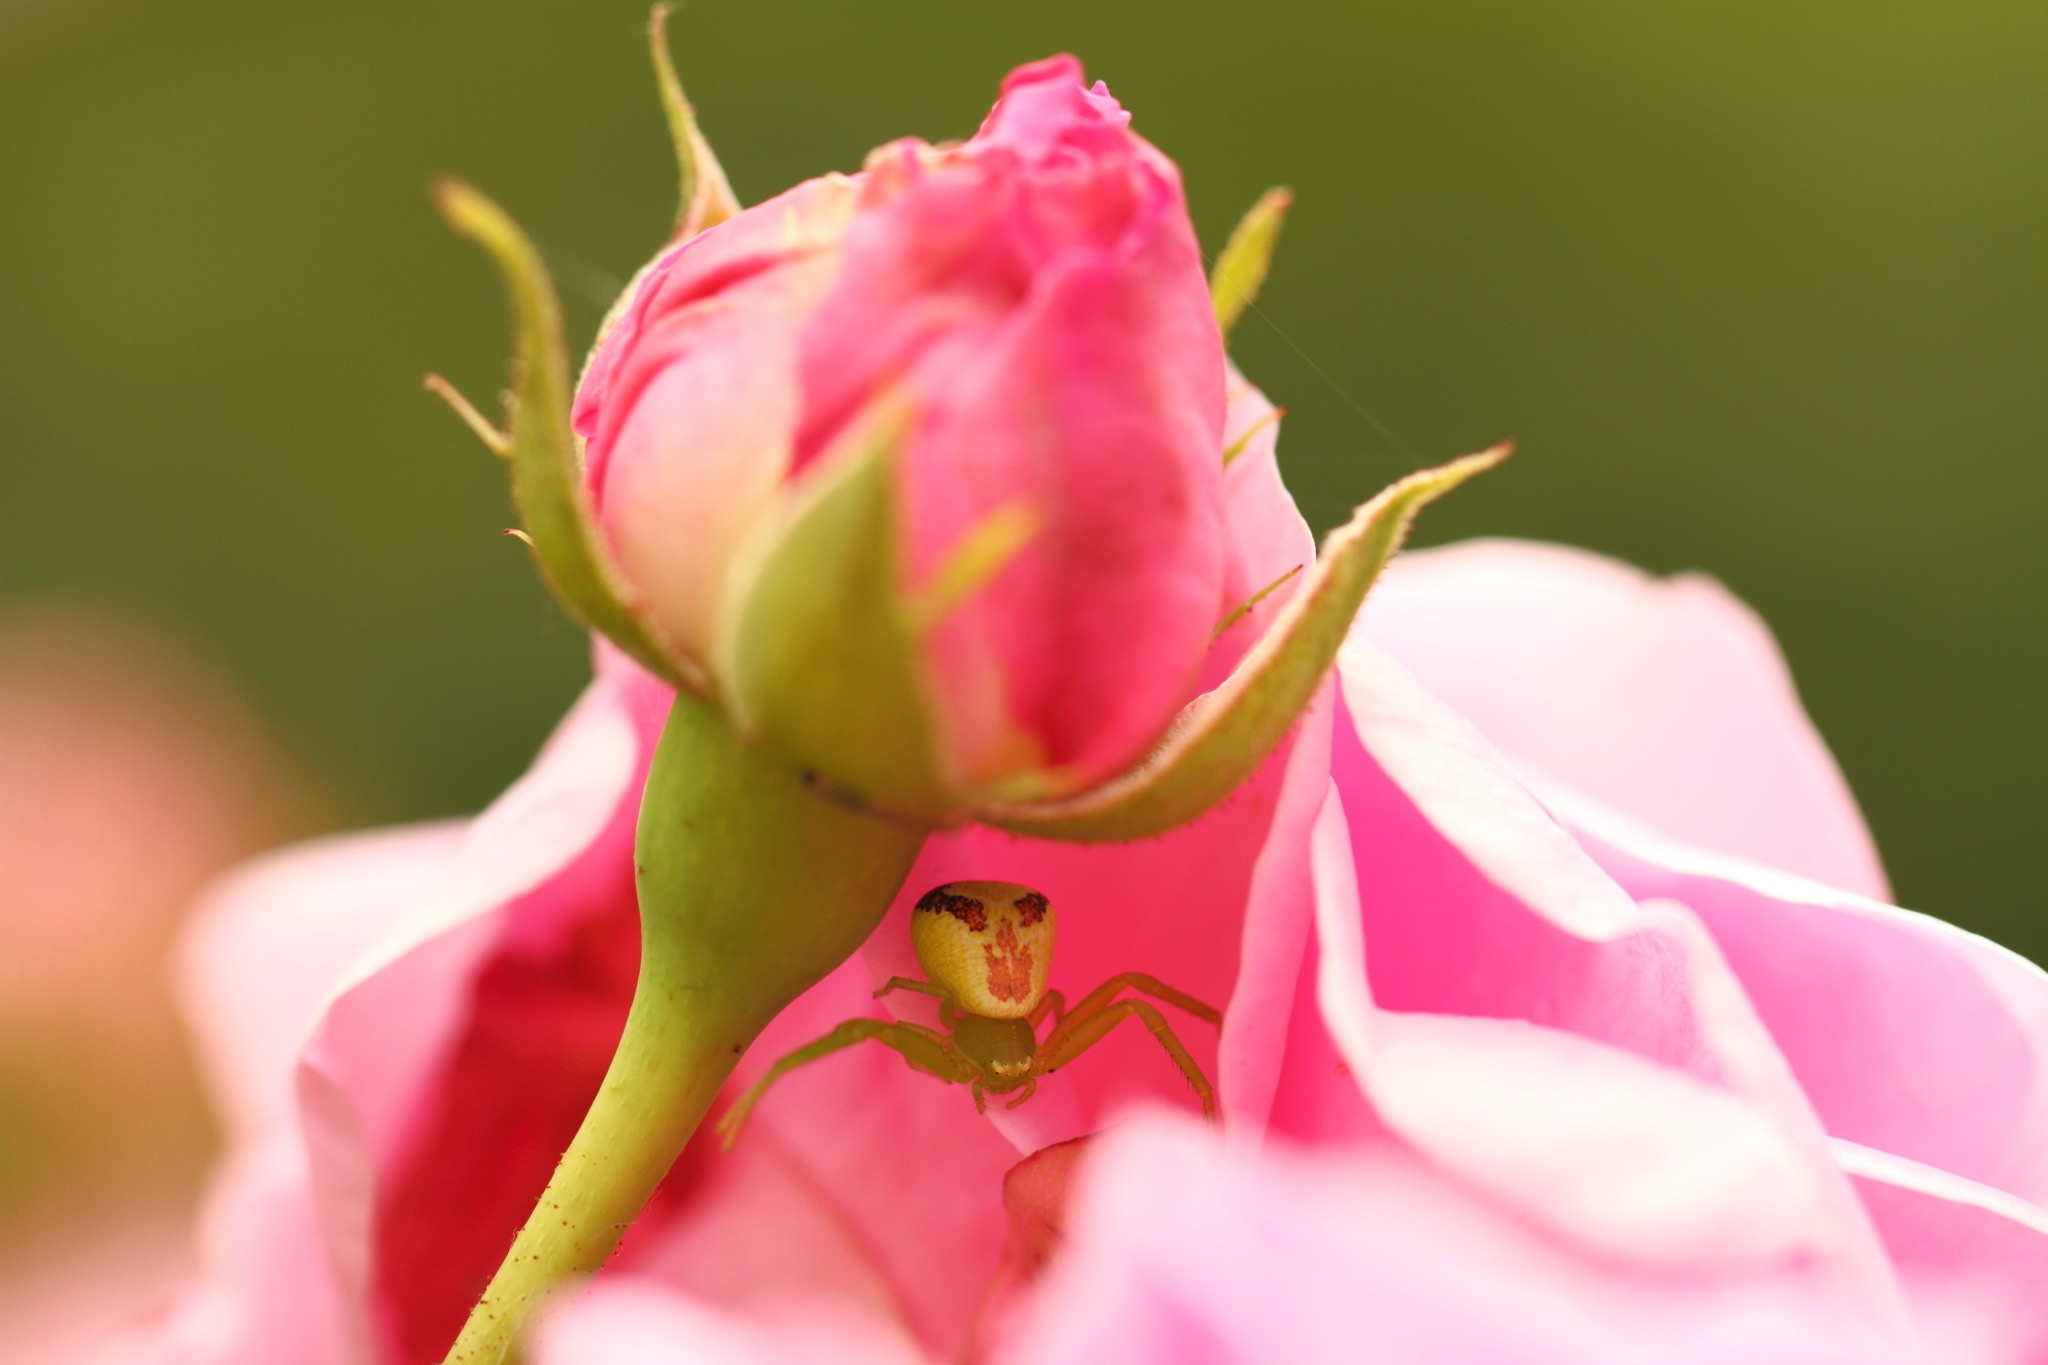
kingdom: Animalia
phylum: Arthropoda
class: Arachnida
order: Araneae
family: Thomisidae
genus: Ebrechtella
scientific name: Ebrechtella tricuspidata
